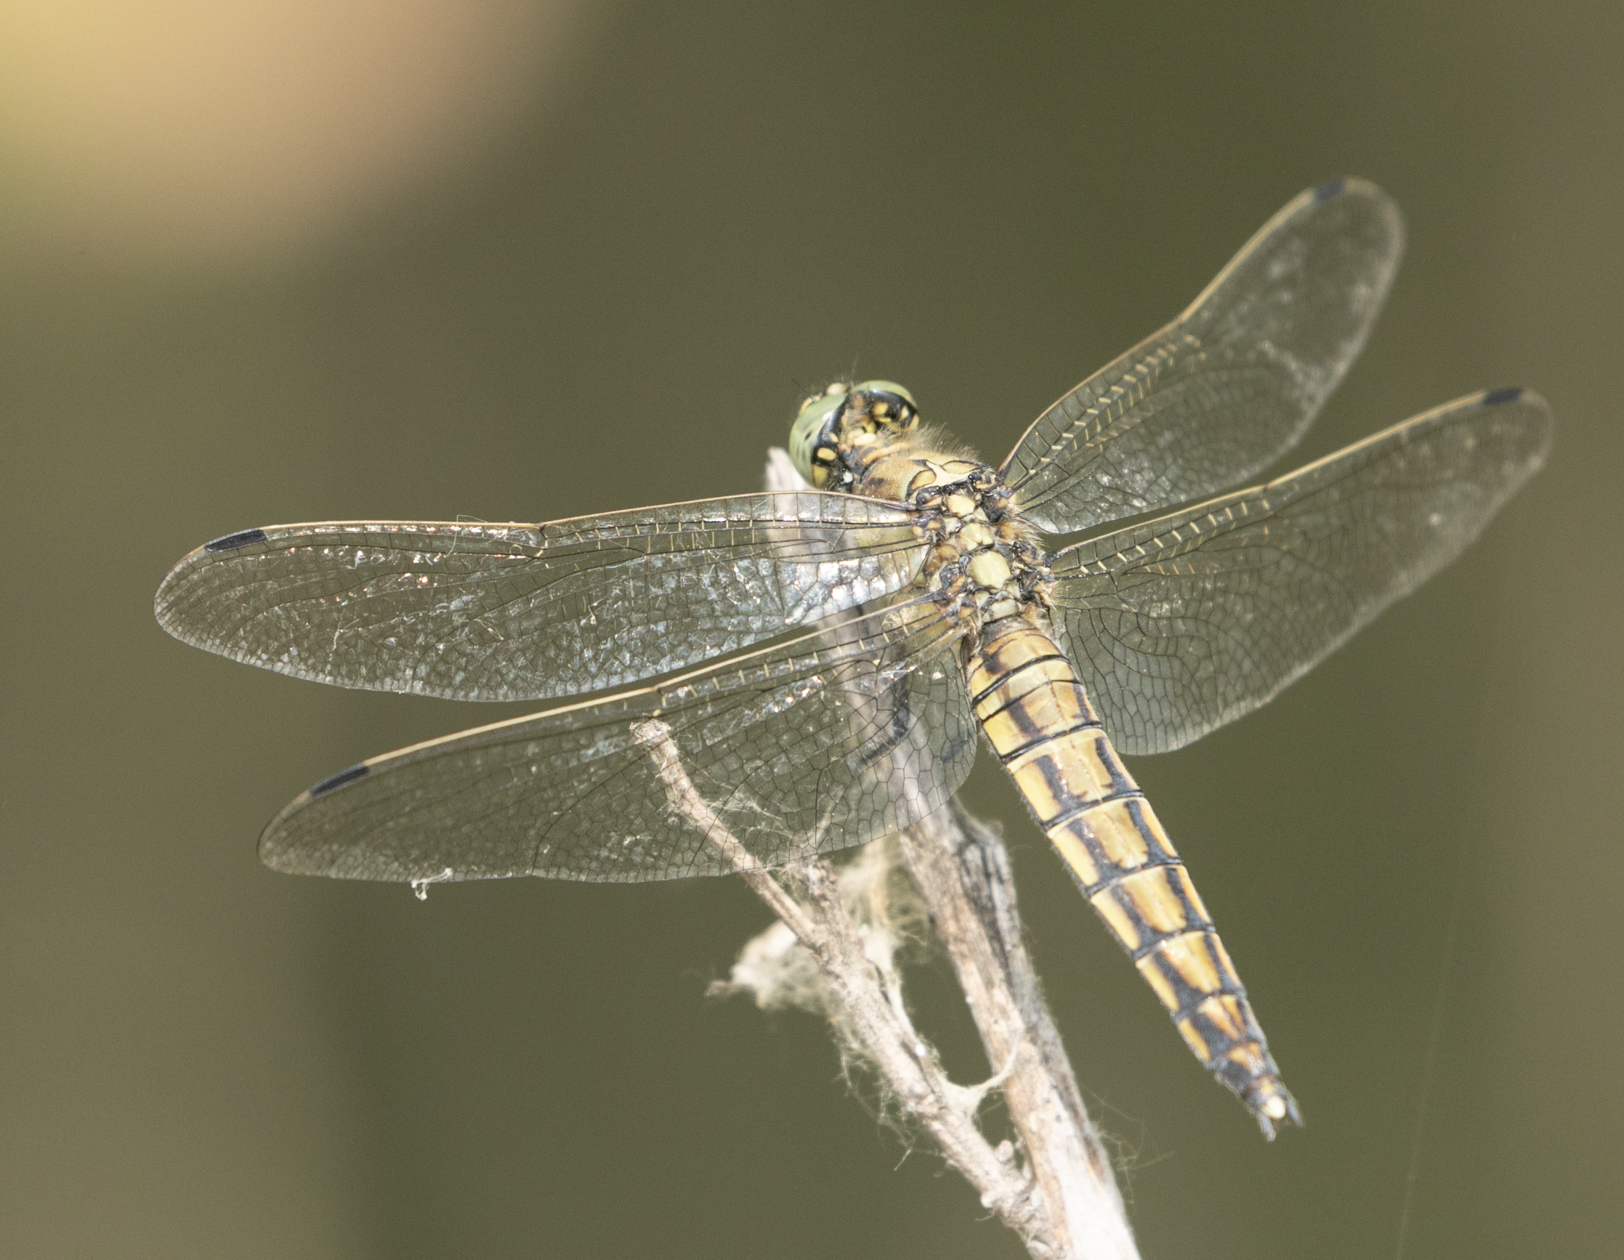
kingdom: Animalia
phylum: Arthropoda
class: Insecta
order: Odonata
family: Libellulidae
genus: Orthetrum
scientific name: Orthetrum cancellatum
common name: Black-tailed skimmer
